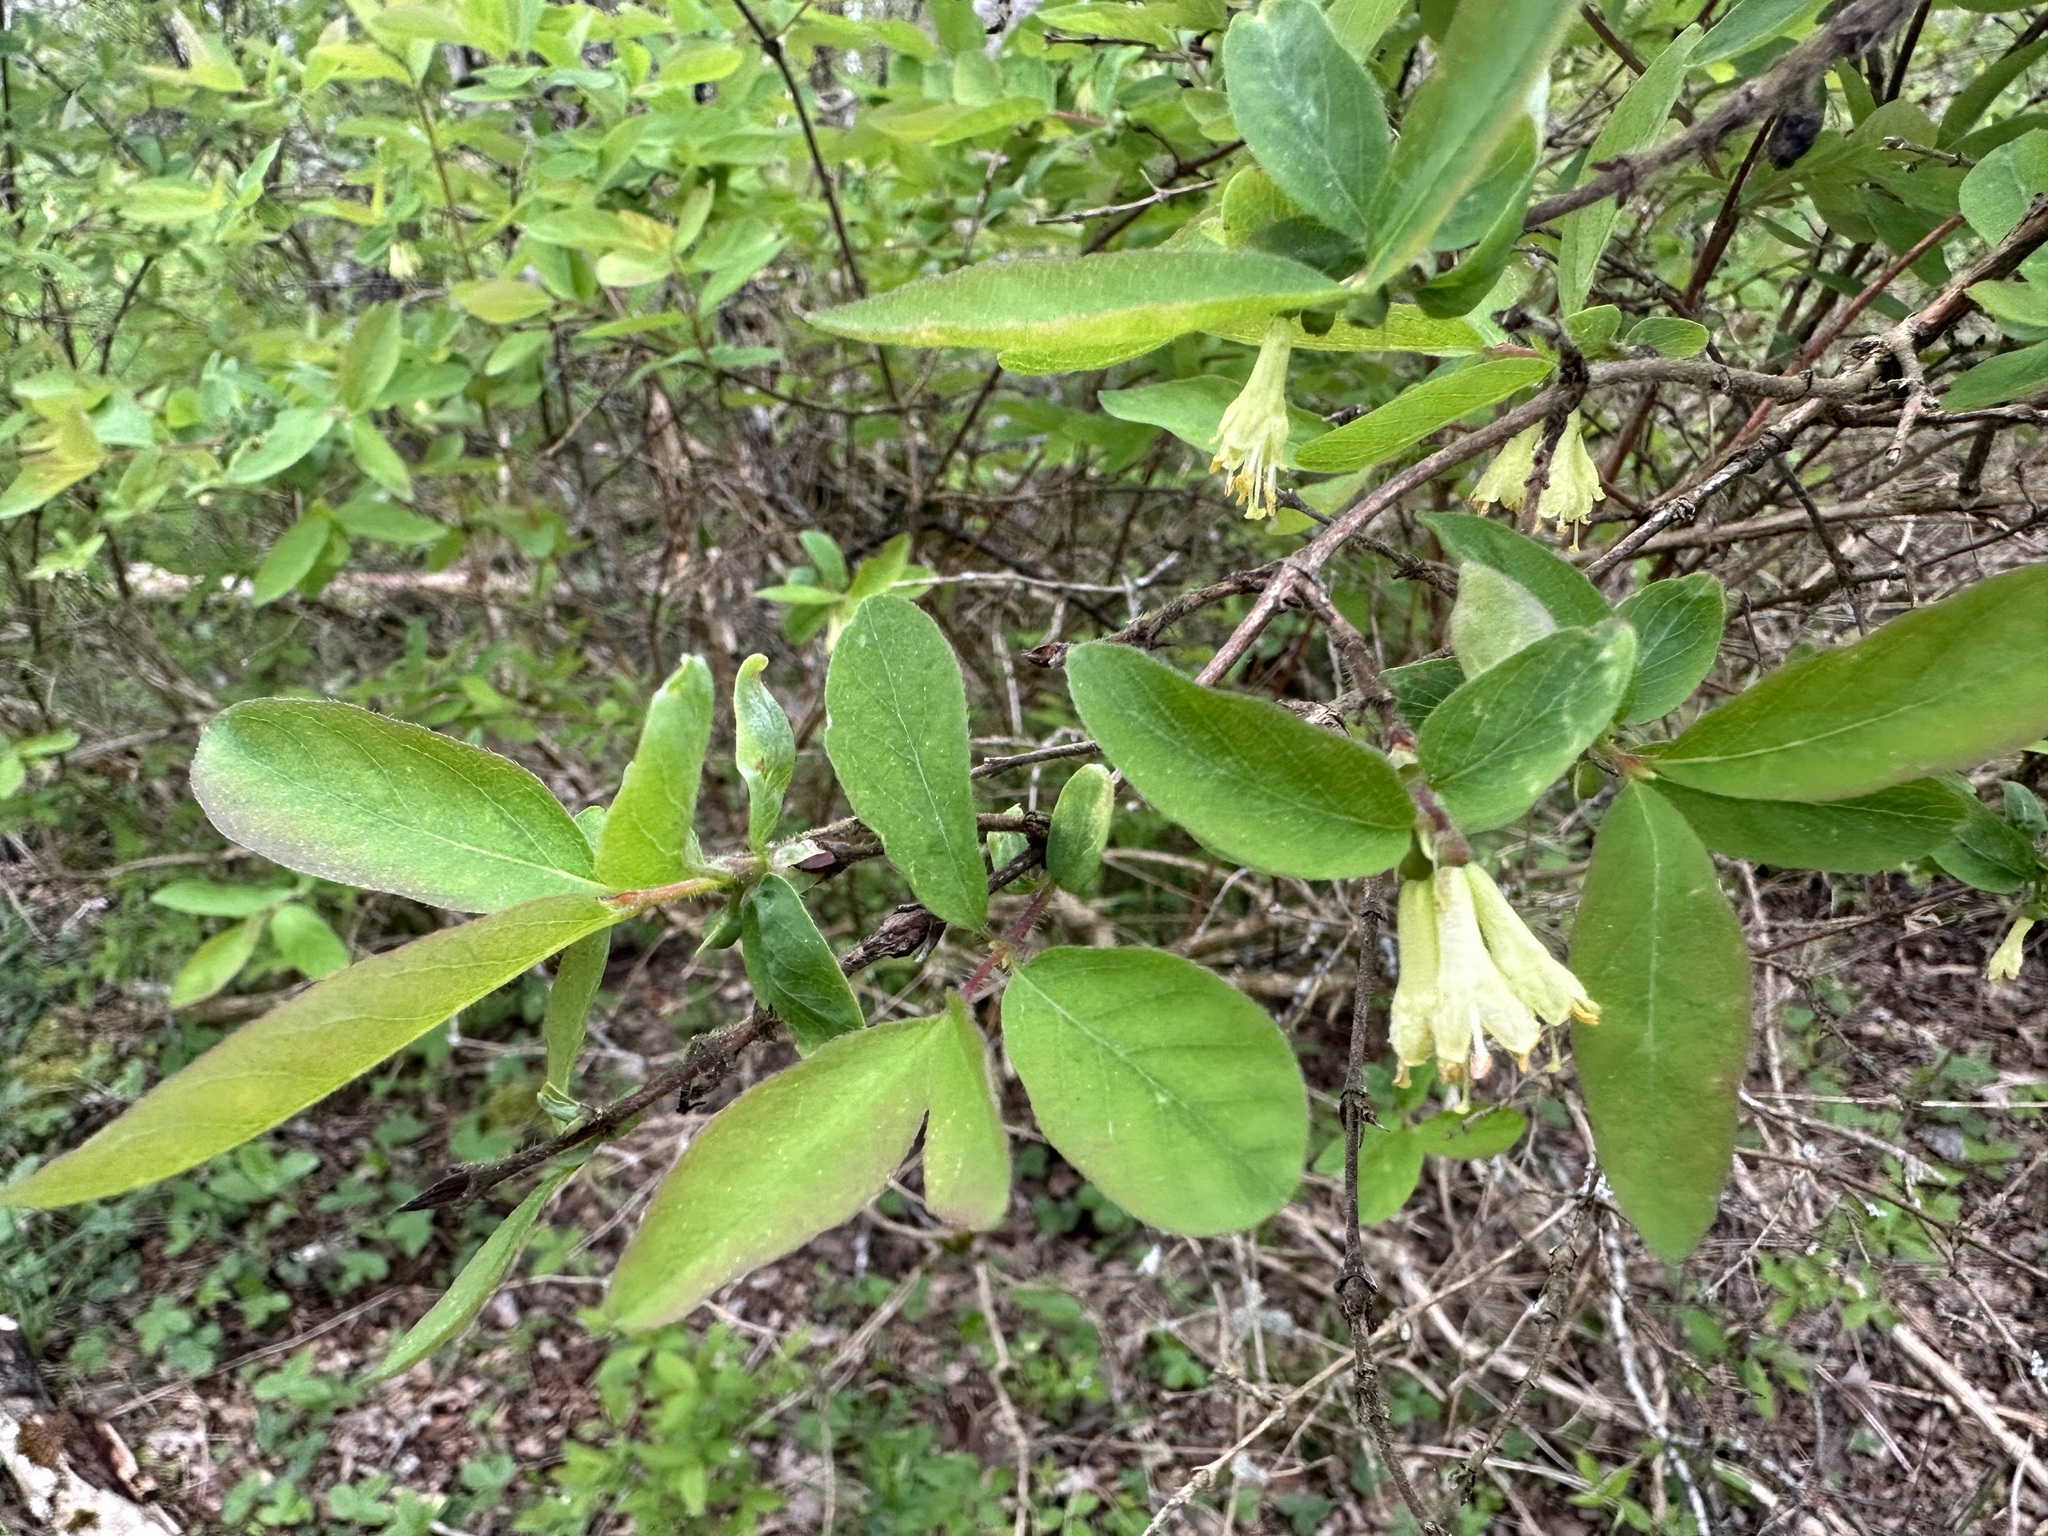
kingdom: Plantae
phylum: Tracheophyta
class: Magnoliopsida
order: Dipsacales
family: Caprifoliaceae
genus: Lonicera
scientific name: Lonicera caerulea
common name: Blue honeysuckle
